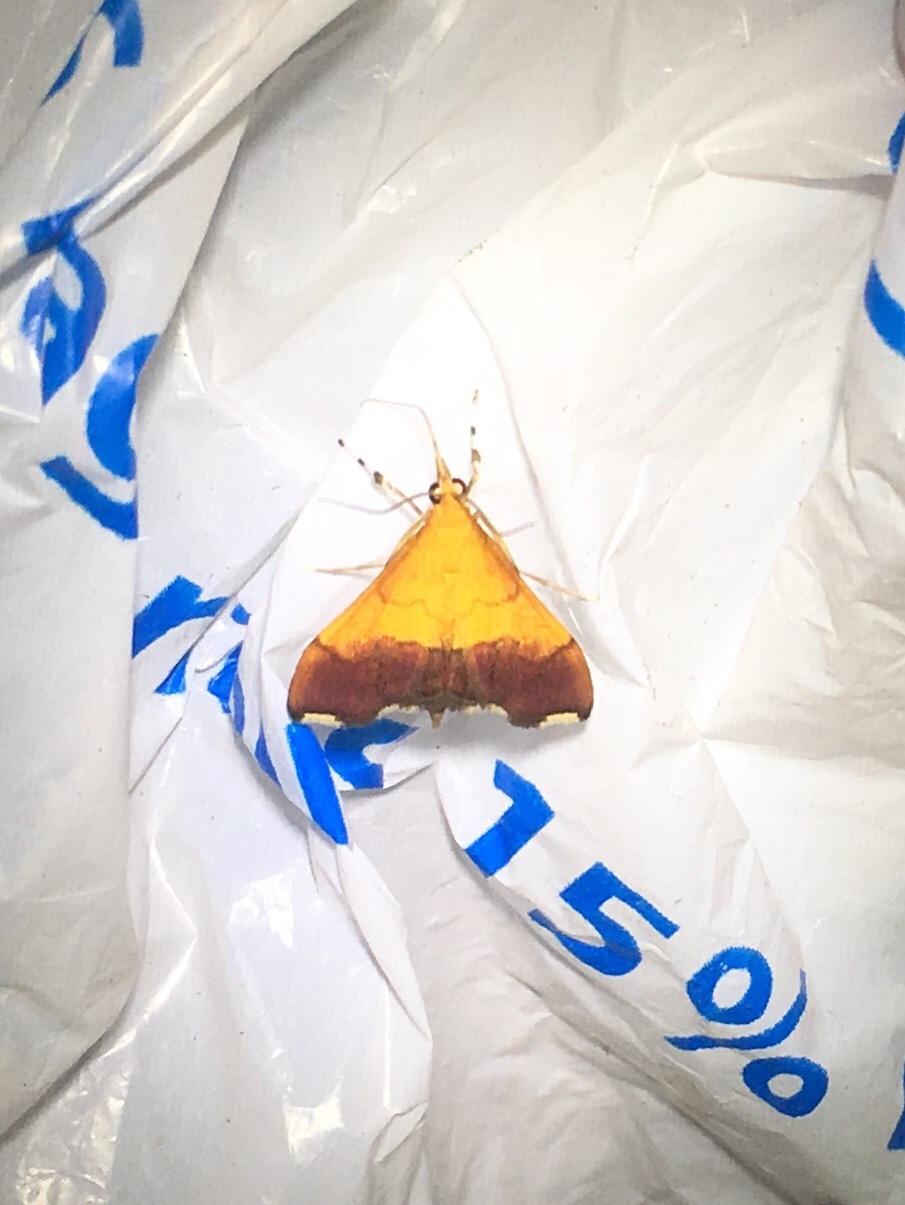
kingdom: Animalia
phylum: Arthropoda
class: Insecta
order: Lepidoptera
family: Crambidae
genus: Pyrausta
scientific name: Pyrausta bicoloralis
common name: Bicolored pyrausta moth
